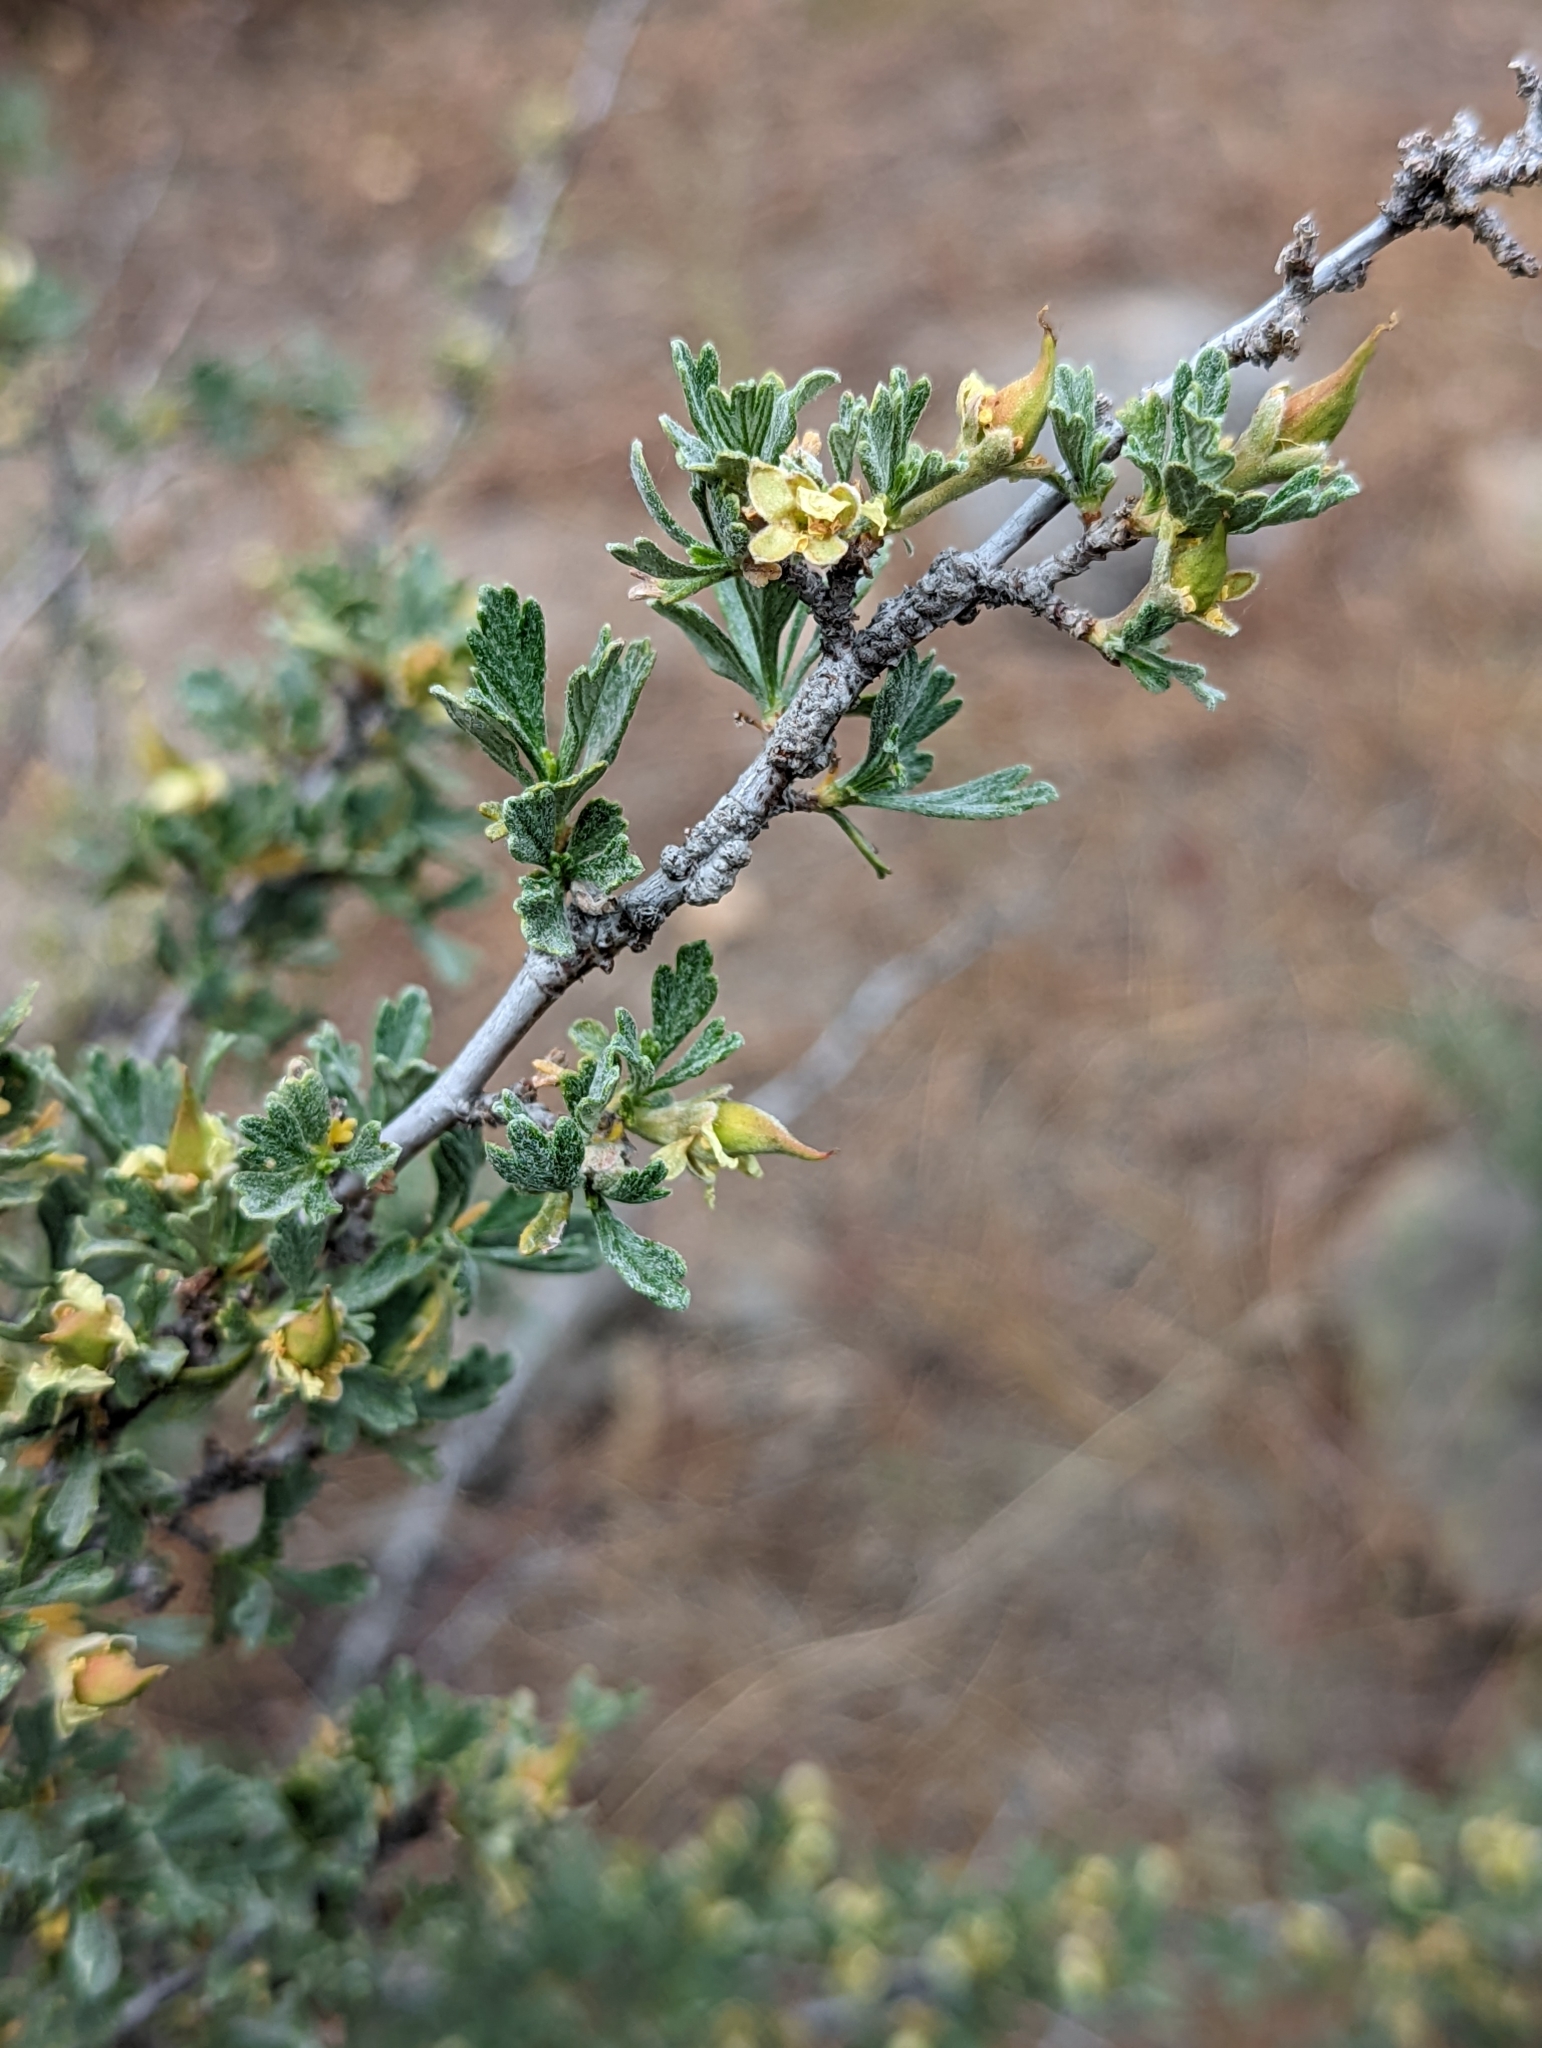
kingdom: Plantae
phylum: Tracheophyta
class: Magnoliopsida
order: Rosales
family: Rosaceae
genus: Purshia
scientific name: Purshia tridentata
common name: Antelope bitterbrush
